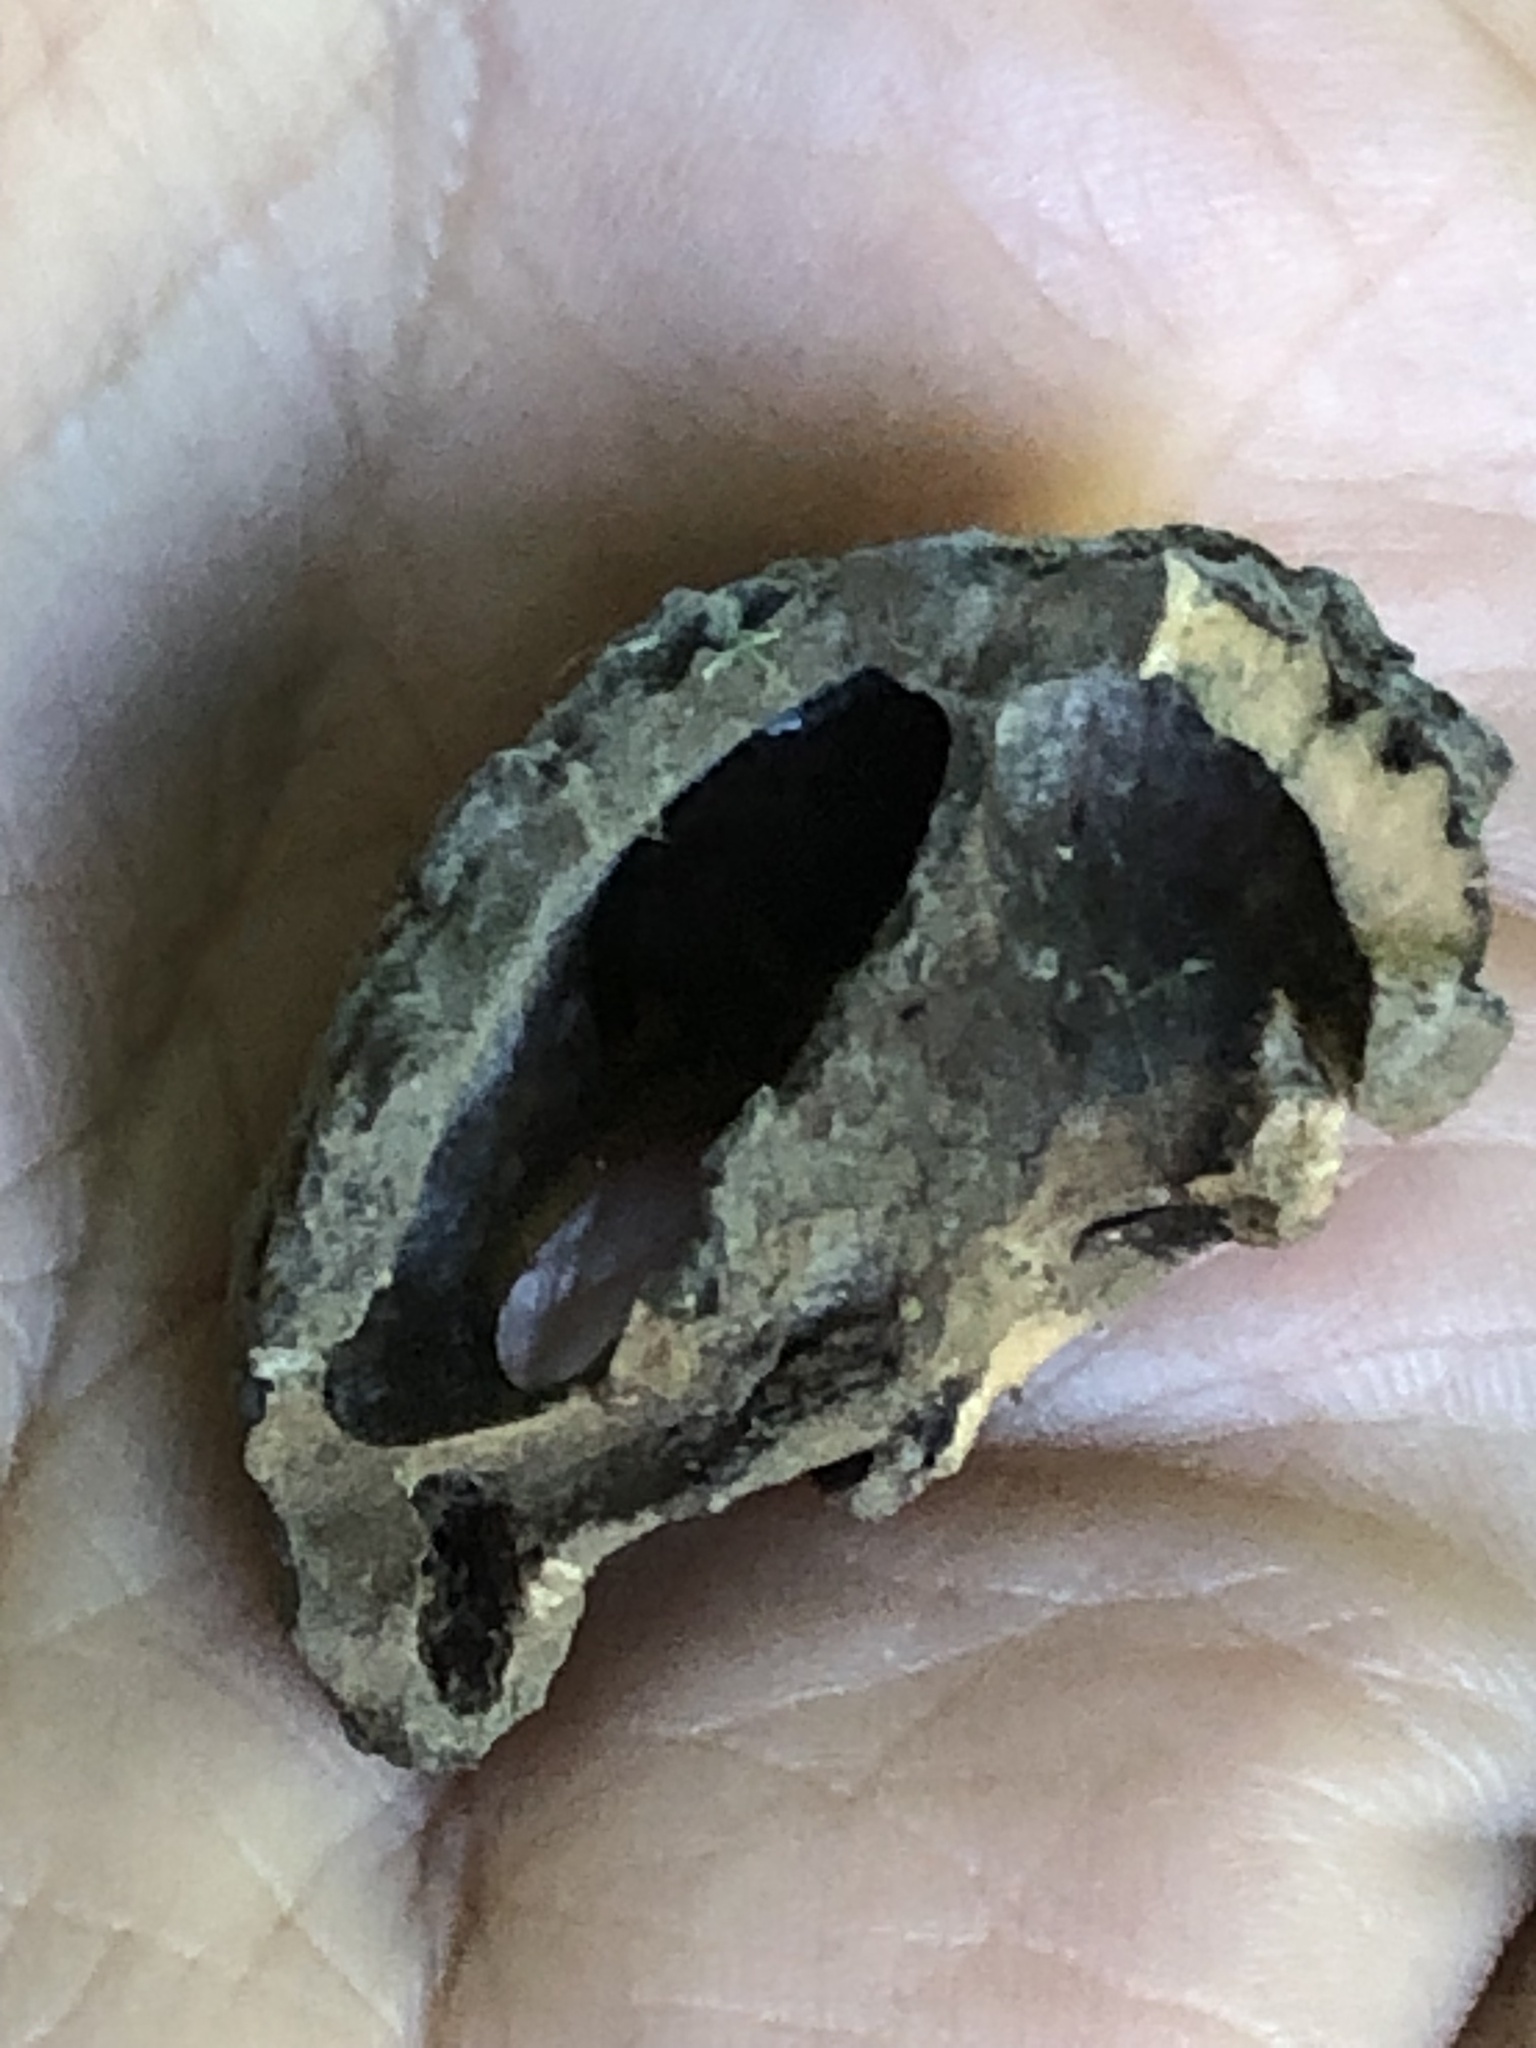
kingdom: Plantae
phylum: Tracheophyta
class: Magnoliopsida
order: Fagales
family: Juglandaceae
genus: Juglans
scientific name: Juglans nigra
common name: Black walnut
